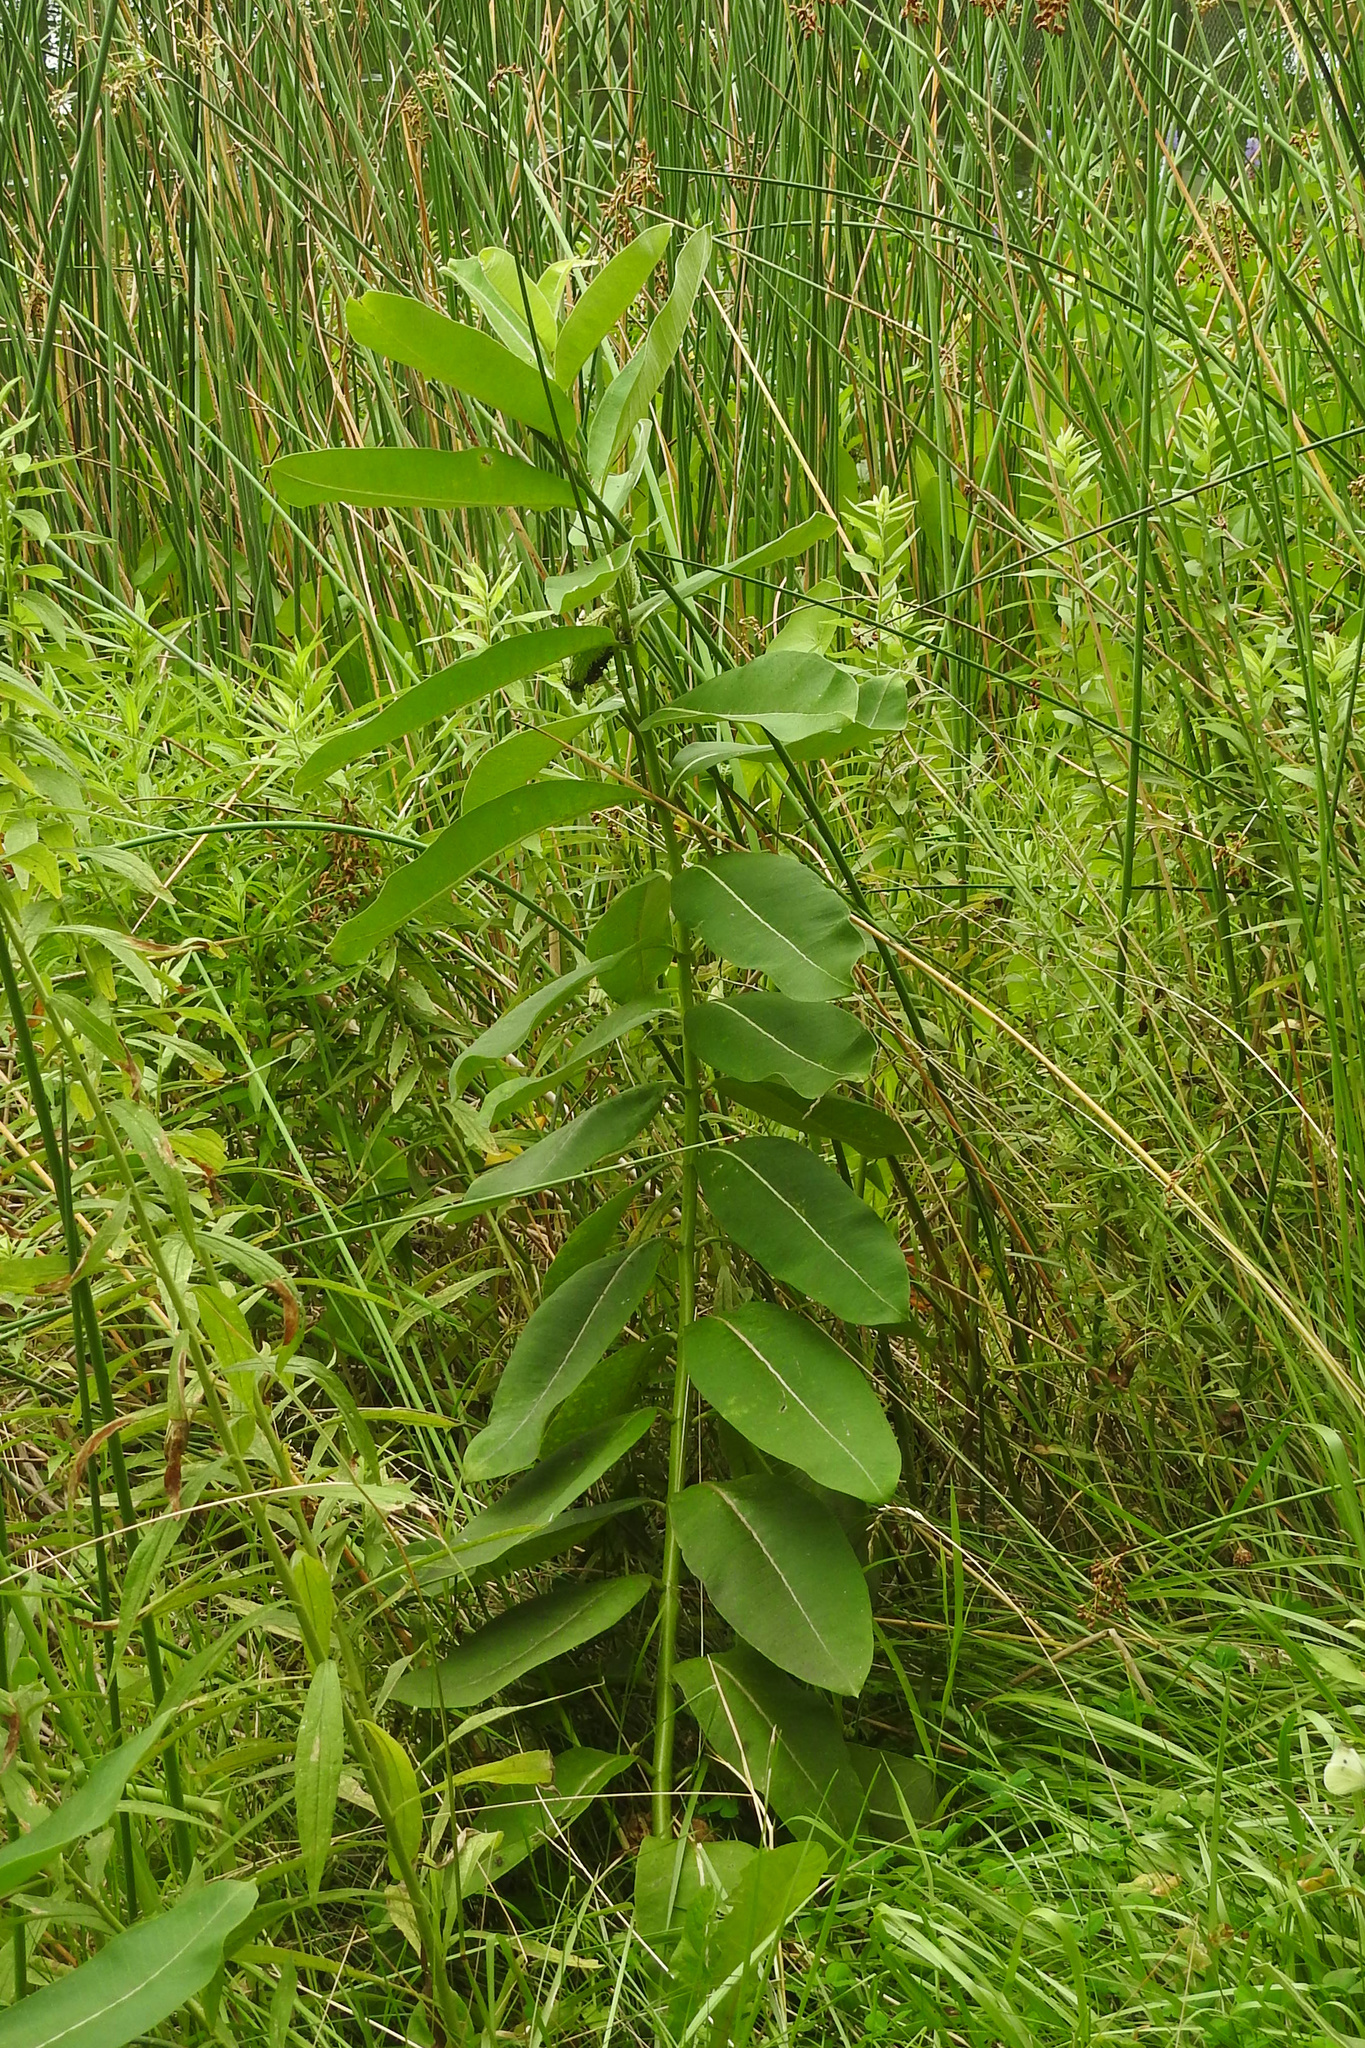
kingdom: Plantae
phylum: Tracheophyta
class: Magnoliopsida
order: Gentianales
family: Apocynaceae
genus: Asclepias
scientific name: Asclepias syriaca
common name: Common milkweed
